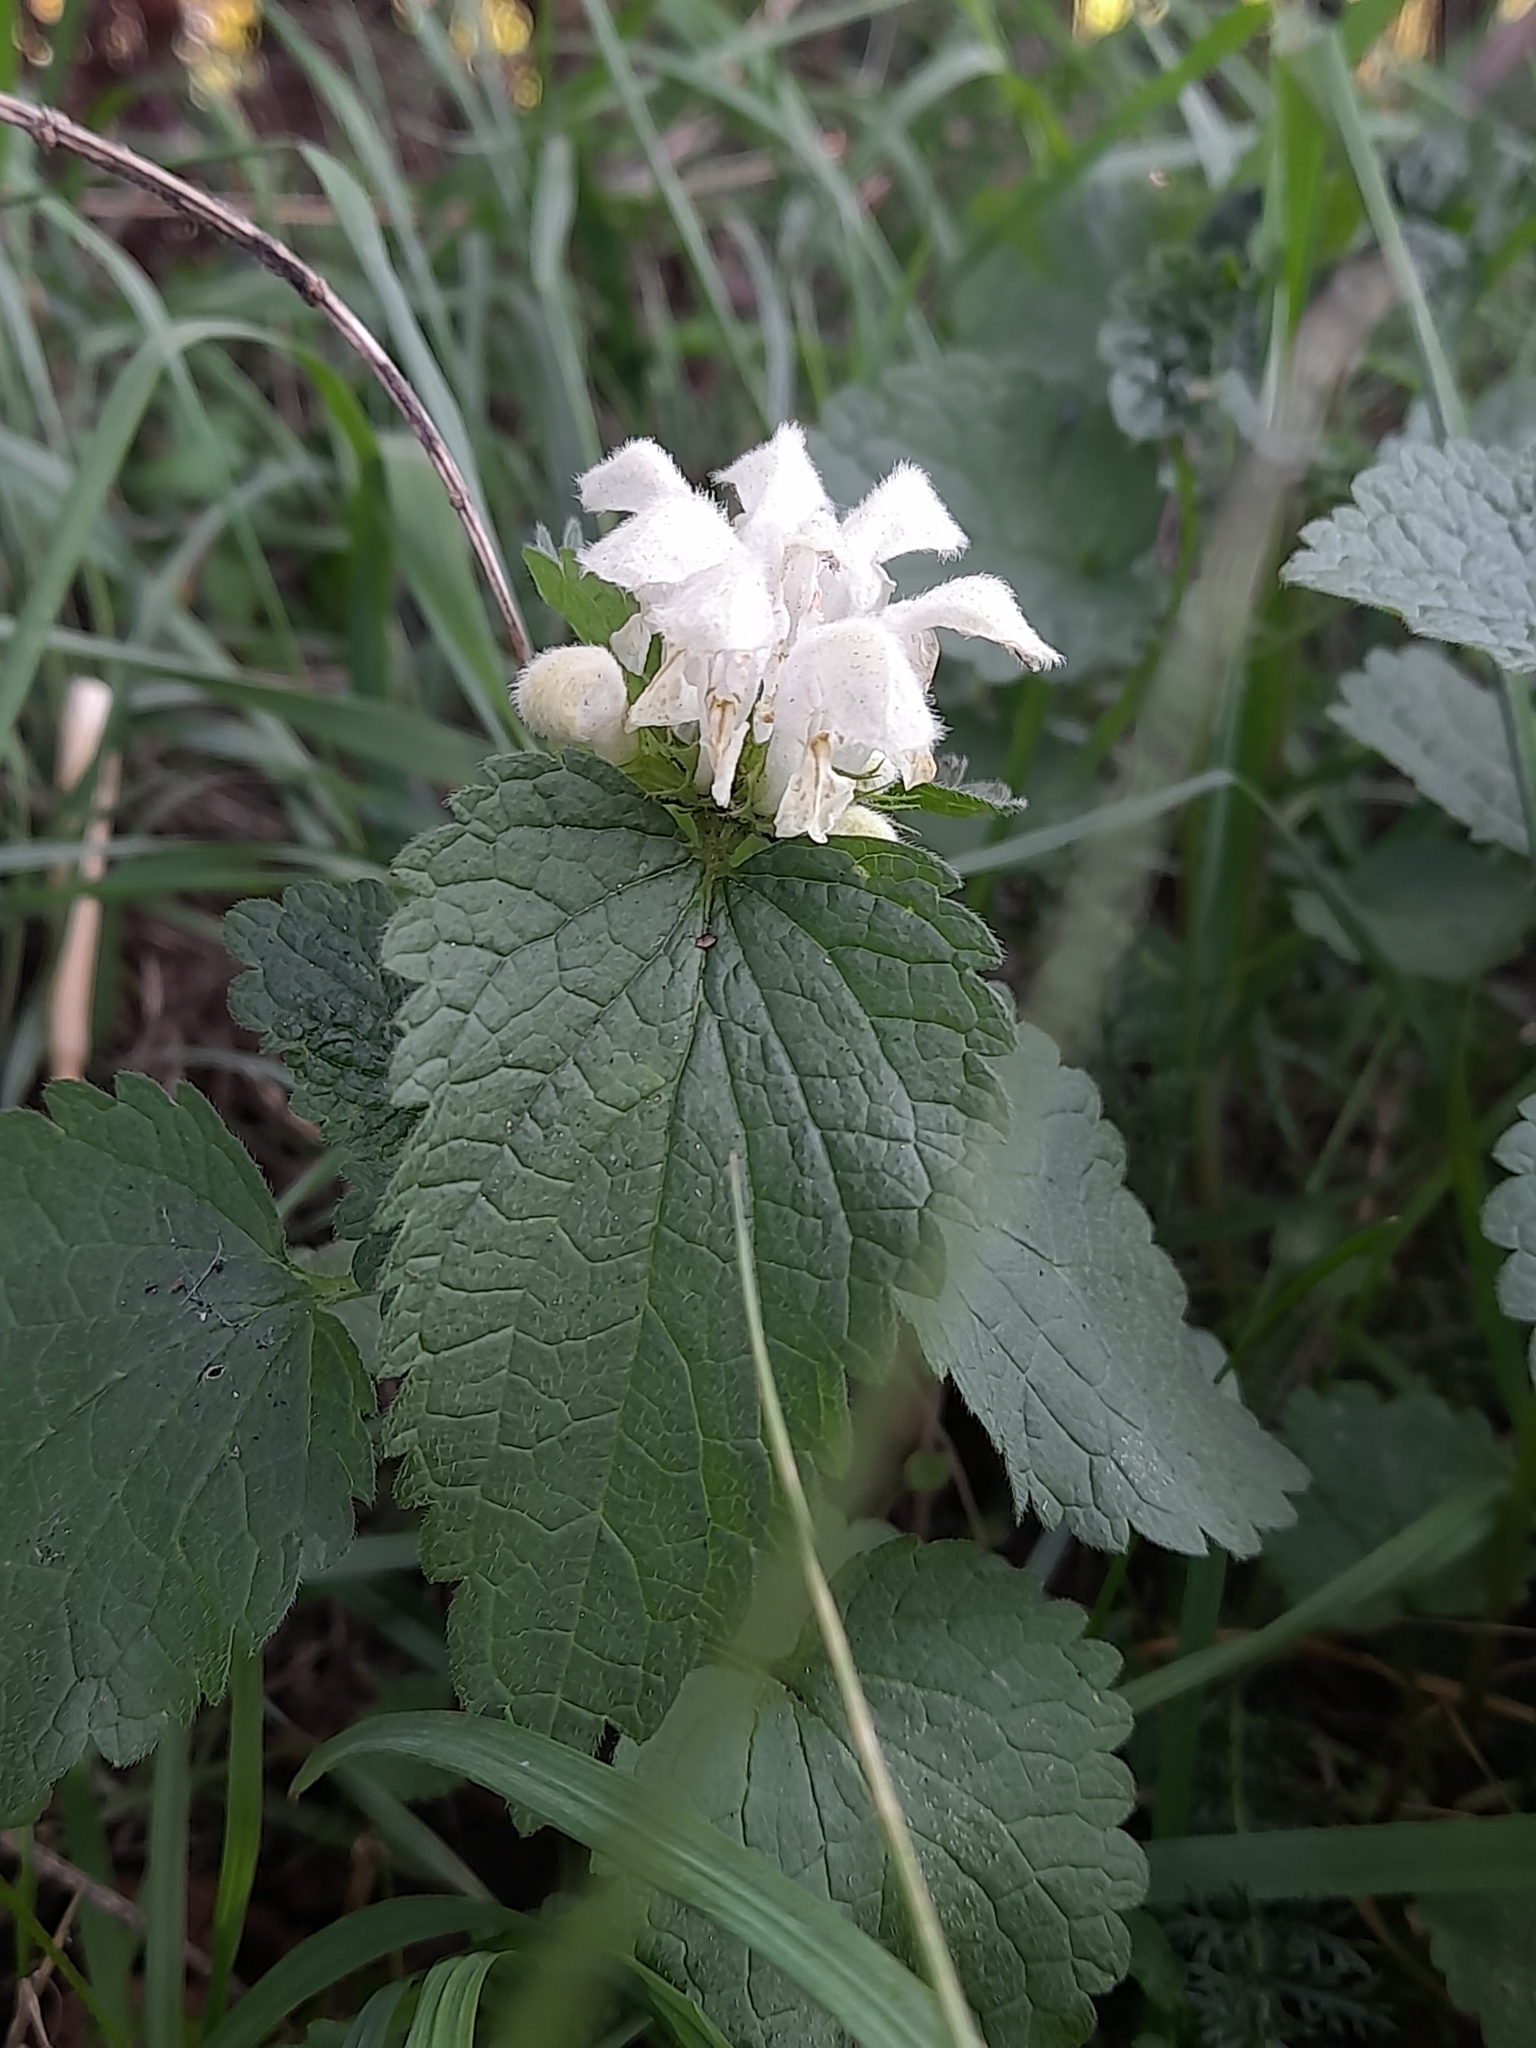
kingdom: Plantae
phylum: Tracheophyta
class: Magnoliopsida
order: Lamiales
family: Lamiaceae
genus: Lamium
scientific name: Lamium album
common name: White dead-nettle
